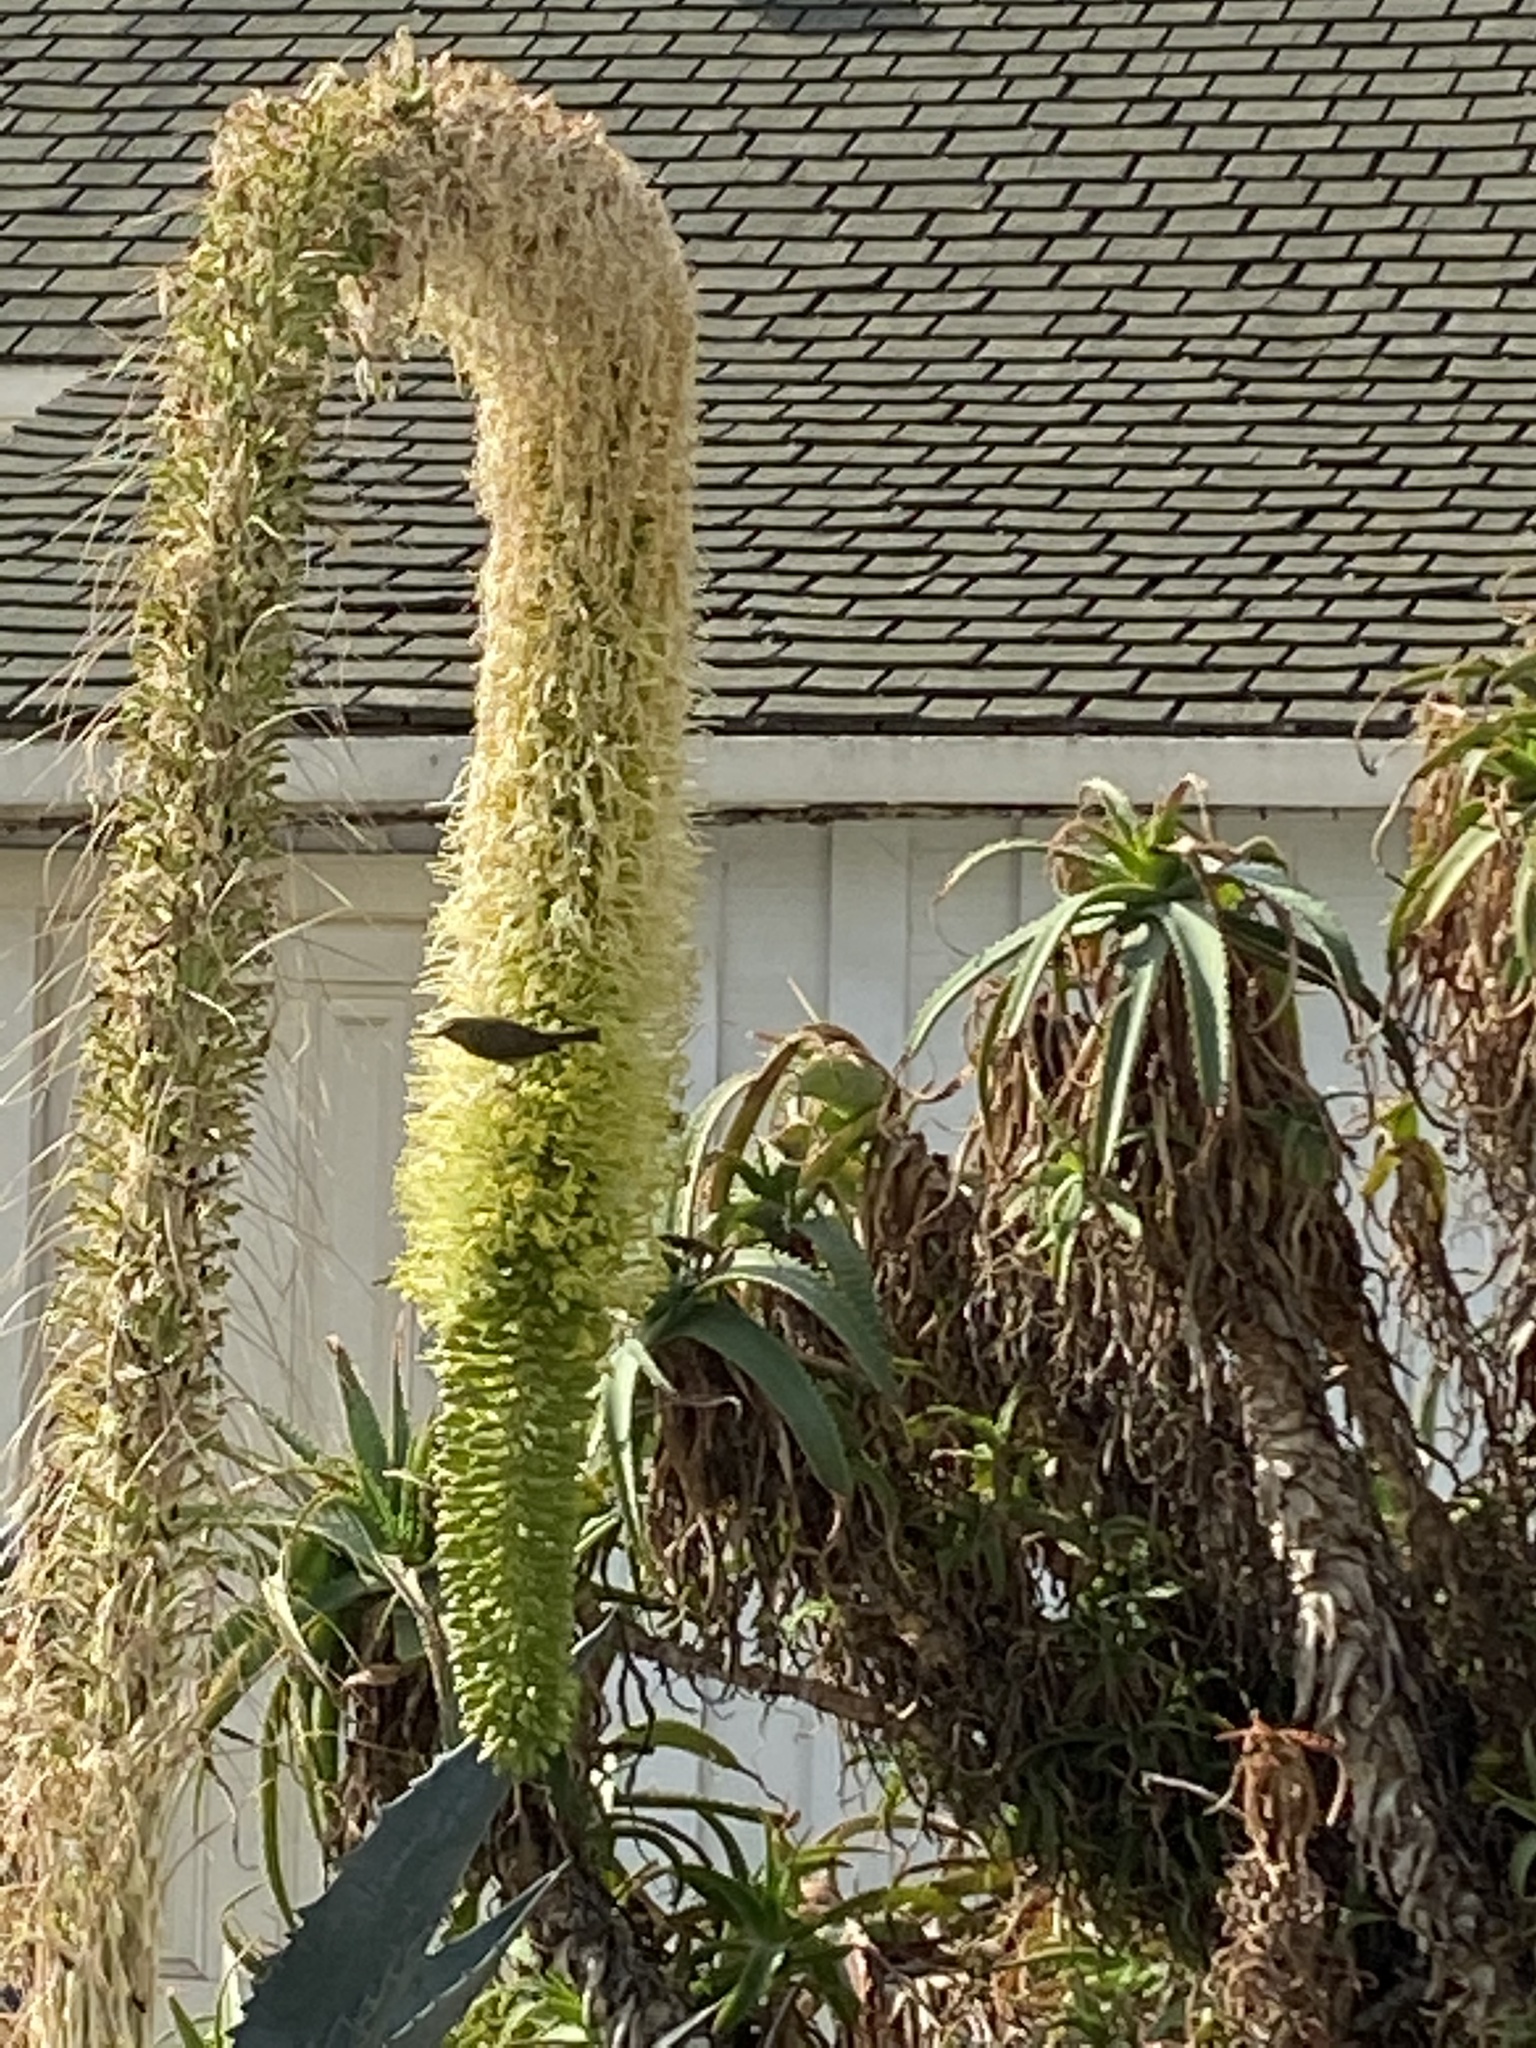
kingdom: Animalia
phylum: Chordata
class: Aves
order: Passeriformes
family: Parulidae
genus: Leiothlypis
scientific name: Leiothlypis celata
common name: Orange-crowned warbler
